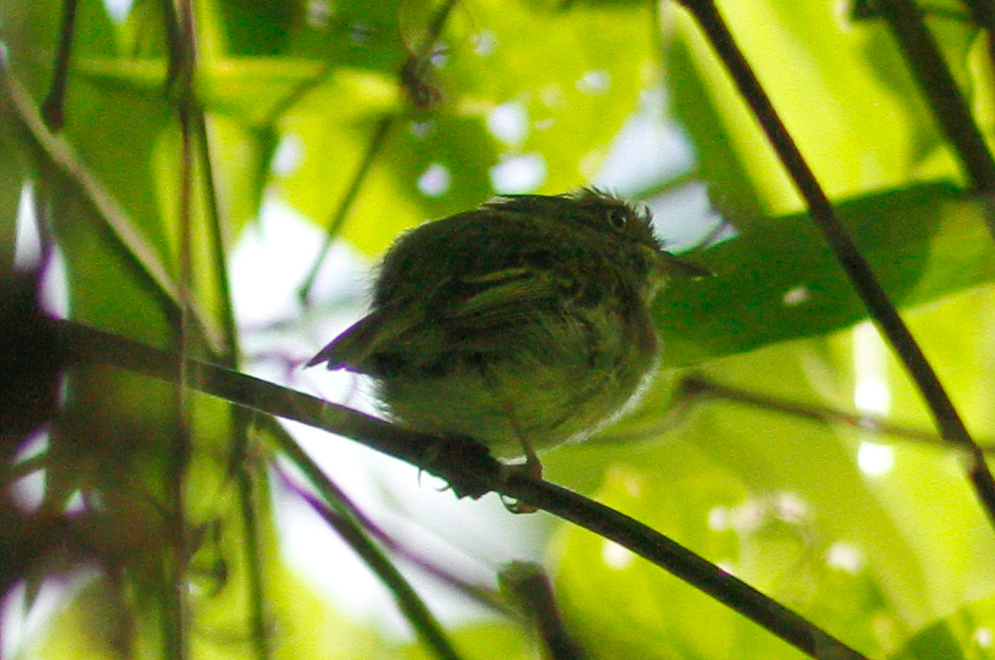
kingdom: Animalia
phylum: Chordata
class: Aves
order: Passeriformes
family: Tyrannidae
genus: Lophotriccus
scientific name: Lophotriccus pileatus
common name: Scale-crested pygmy-tyrant
